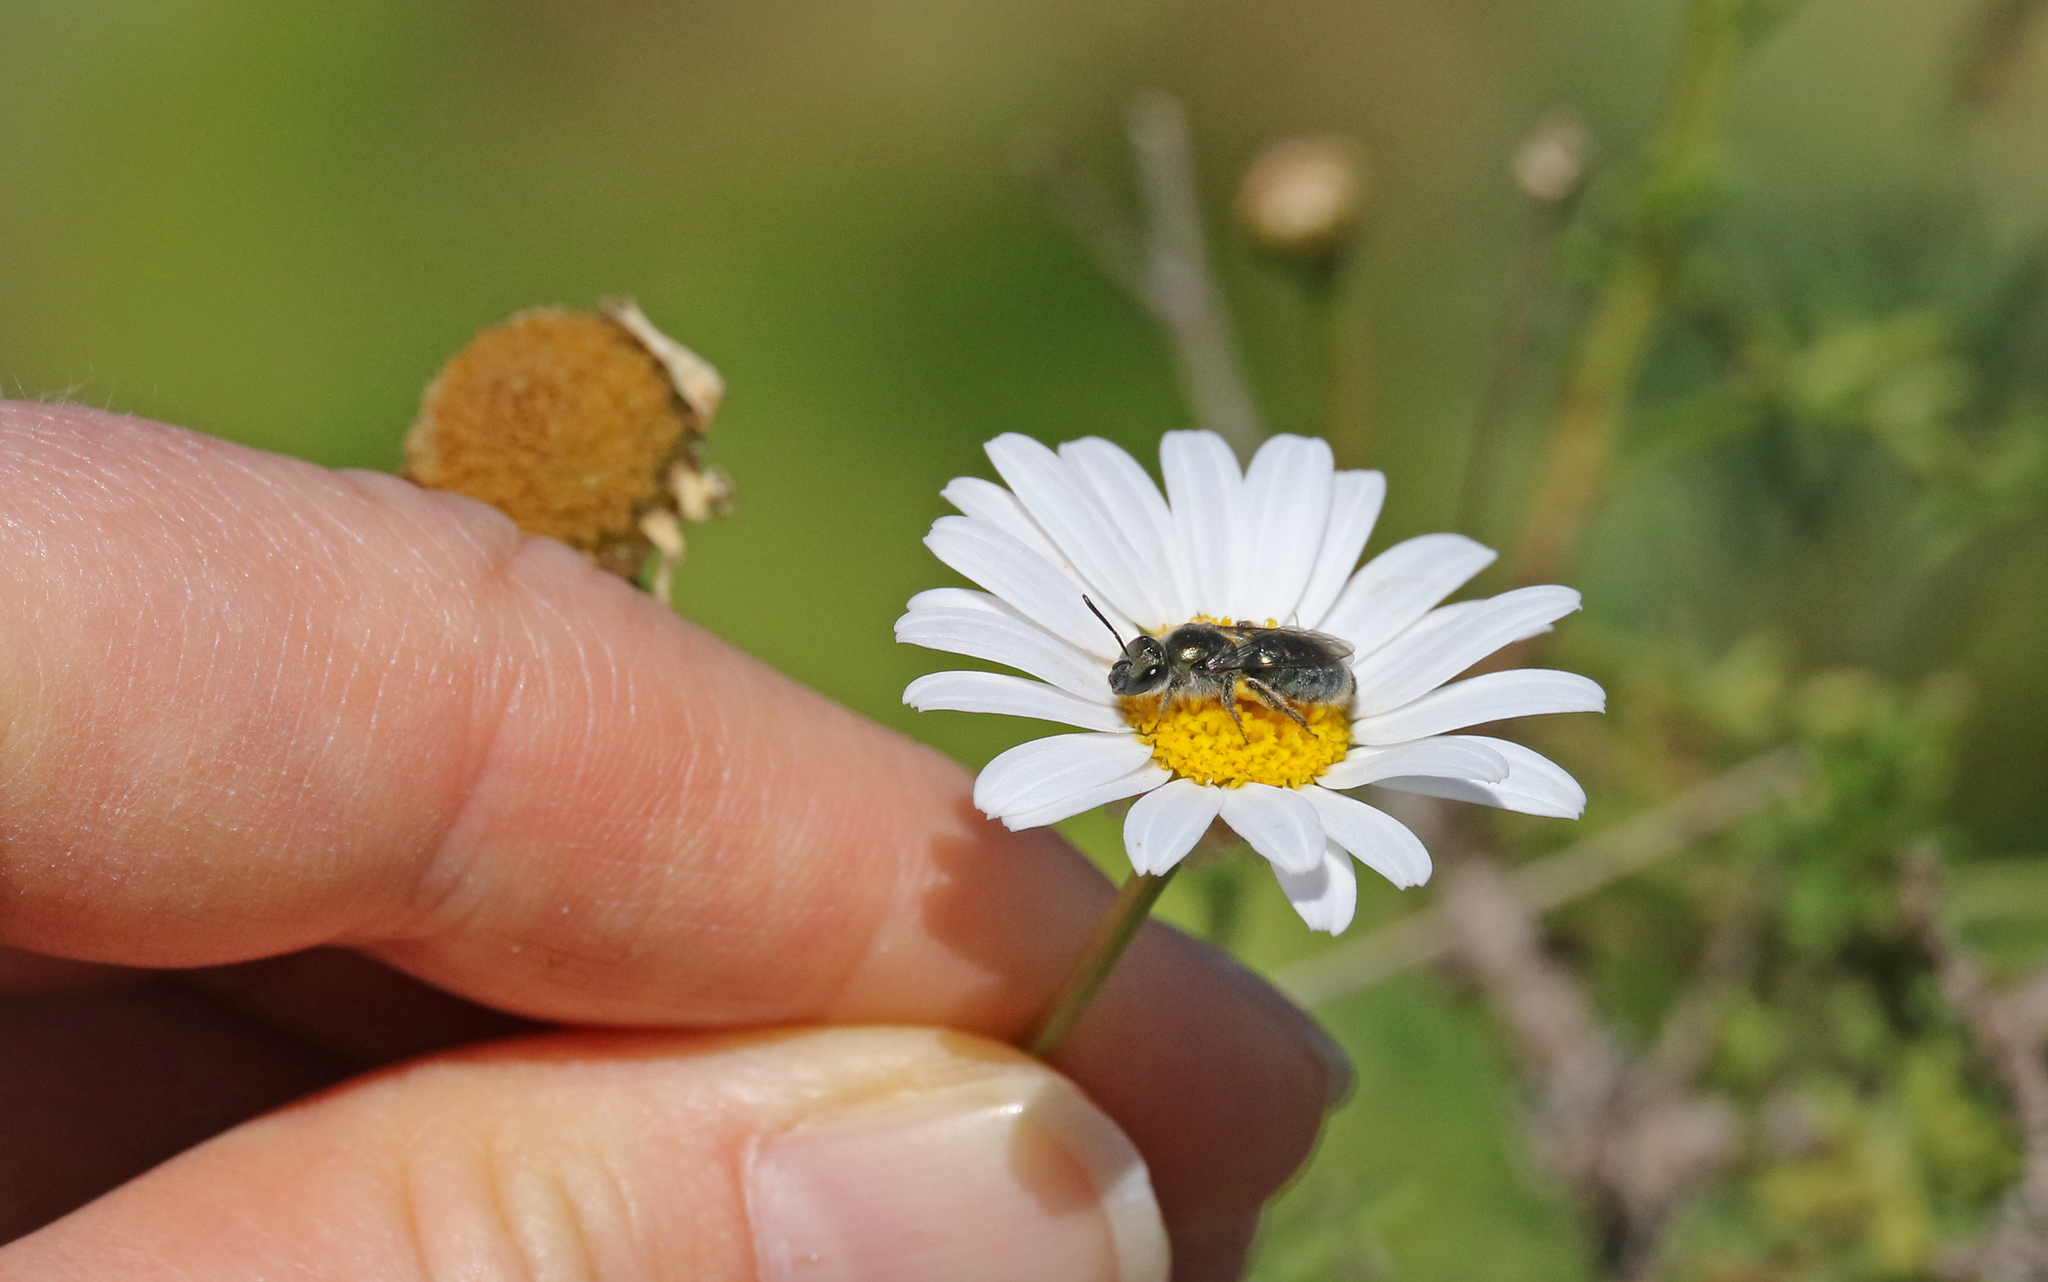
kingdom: Animalia
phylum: Arthropoda
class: Insecta
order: Hymenoptera
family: Halictidae
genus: Lasioglossum
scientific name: Lasioglossum viride
